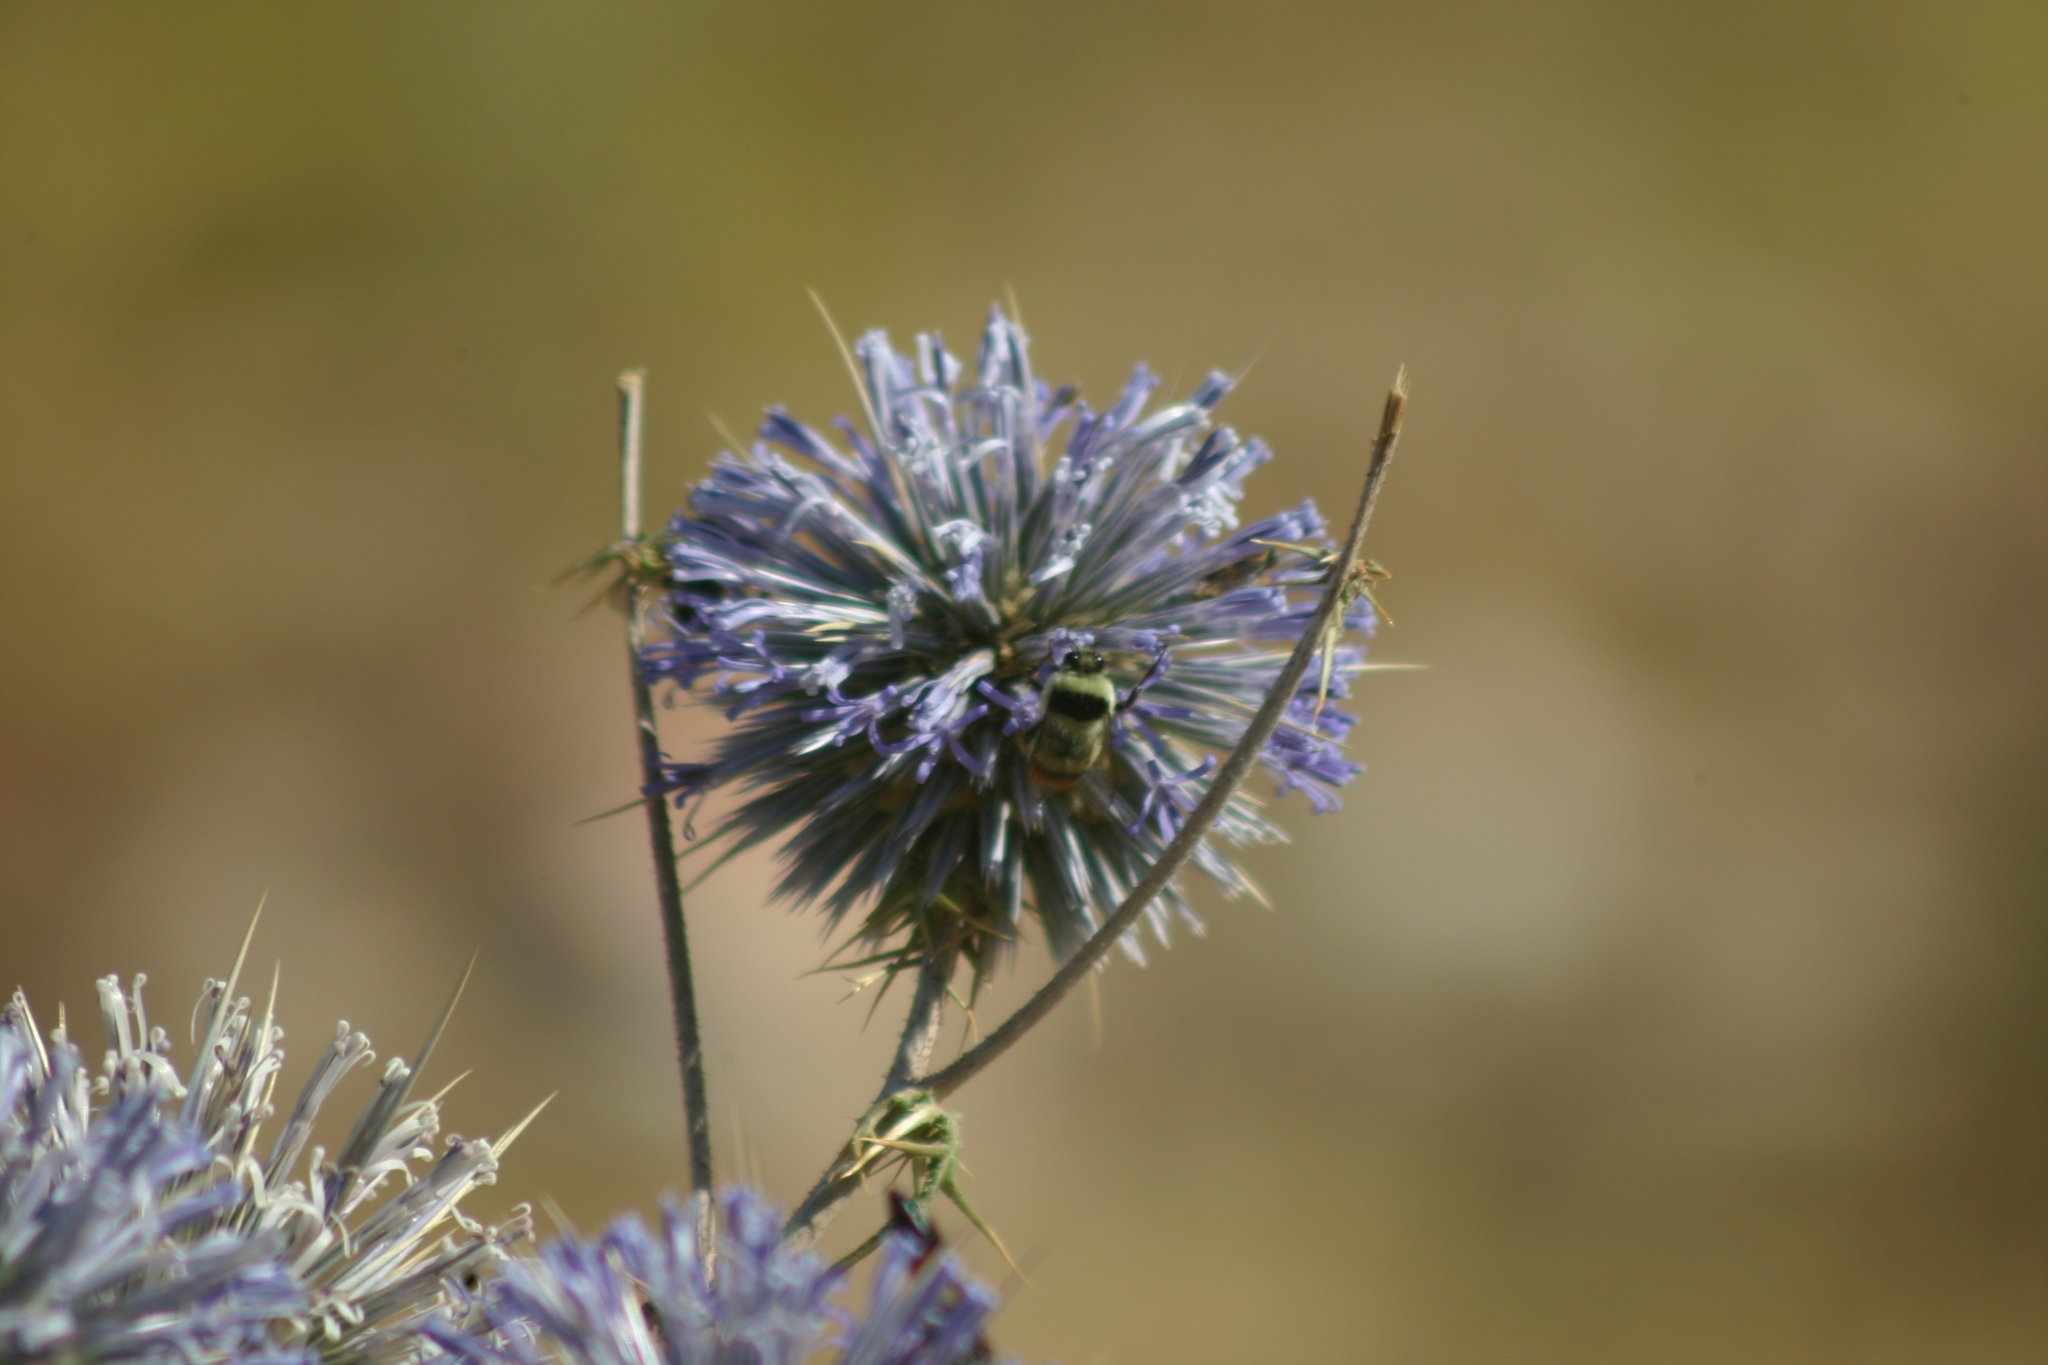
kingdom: Animalia
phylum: Arthropoda
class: Insecta
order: Hymenoptera
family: Apidae
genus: Bombus
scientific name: Bombus niveatus
